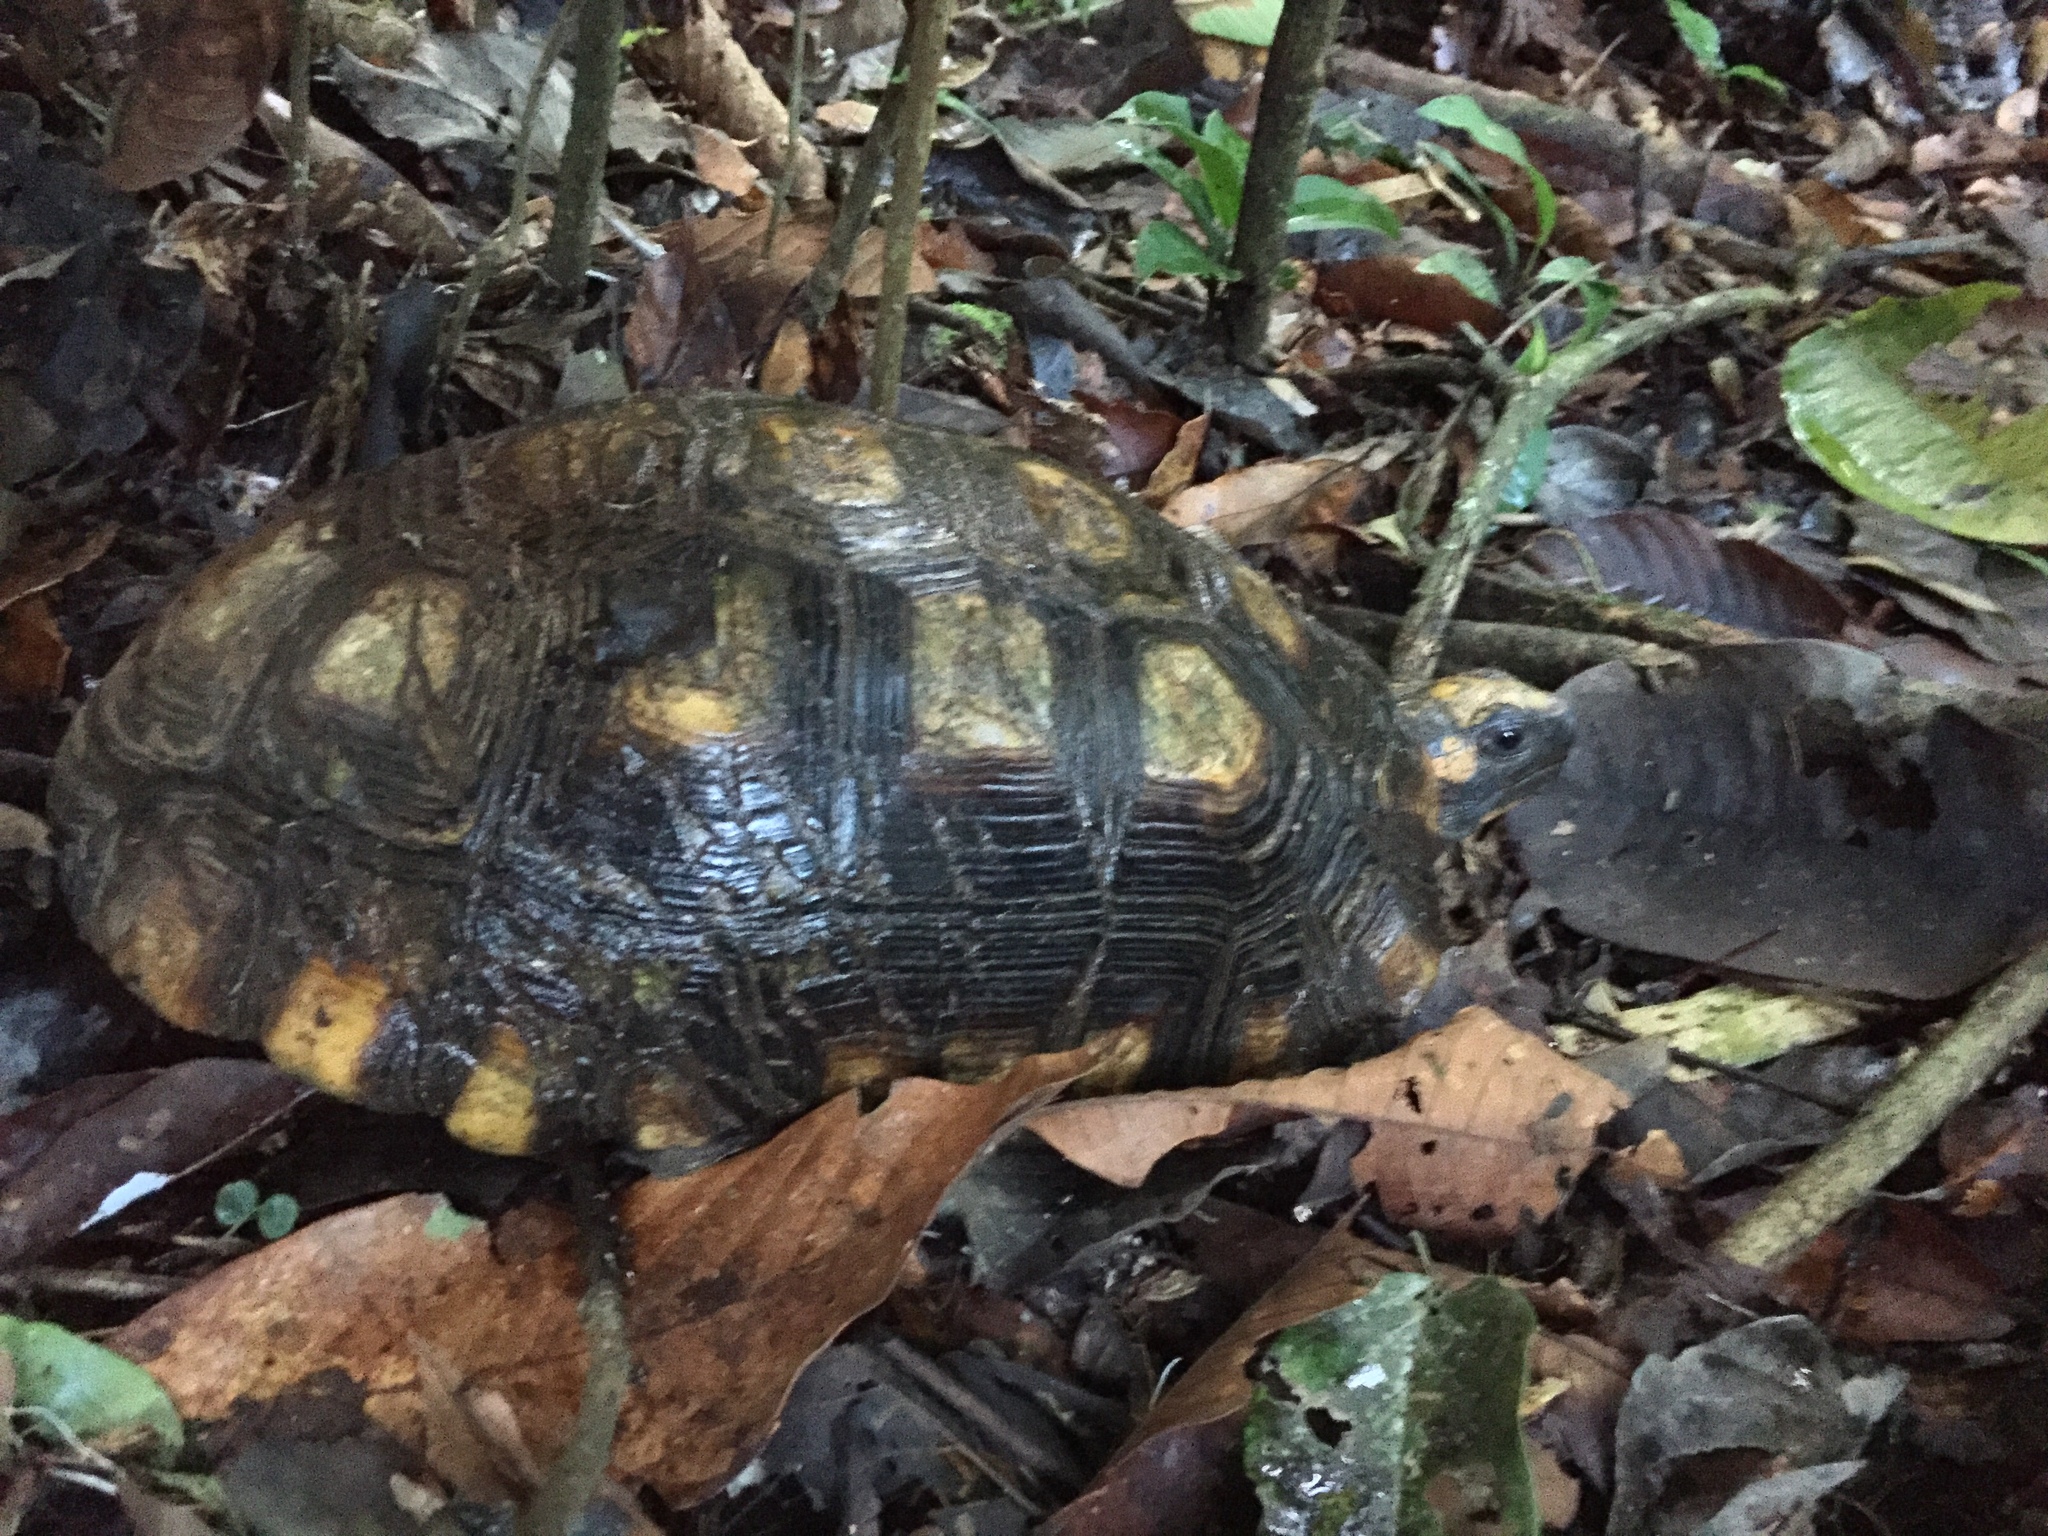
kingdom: Animalia
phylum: Chordata
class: Testudines
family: Testudinidae
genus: Chelonoidis
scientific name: Chelonoidis denticulatus
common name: Yellow-footed tortoise
